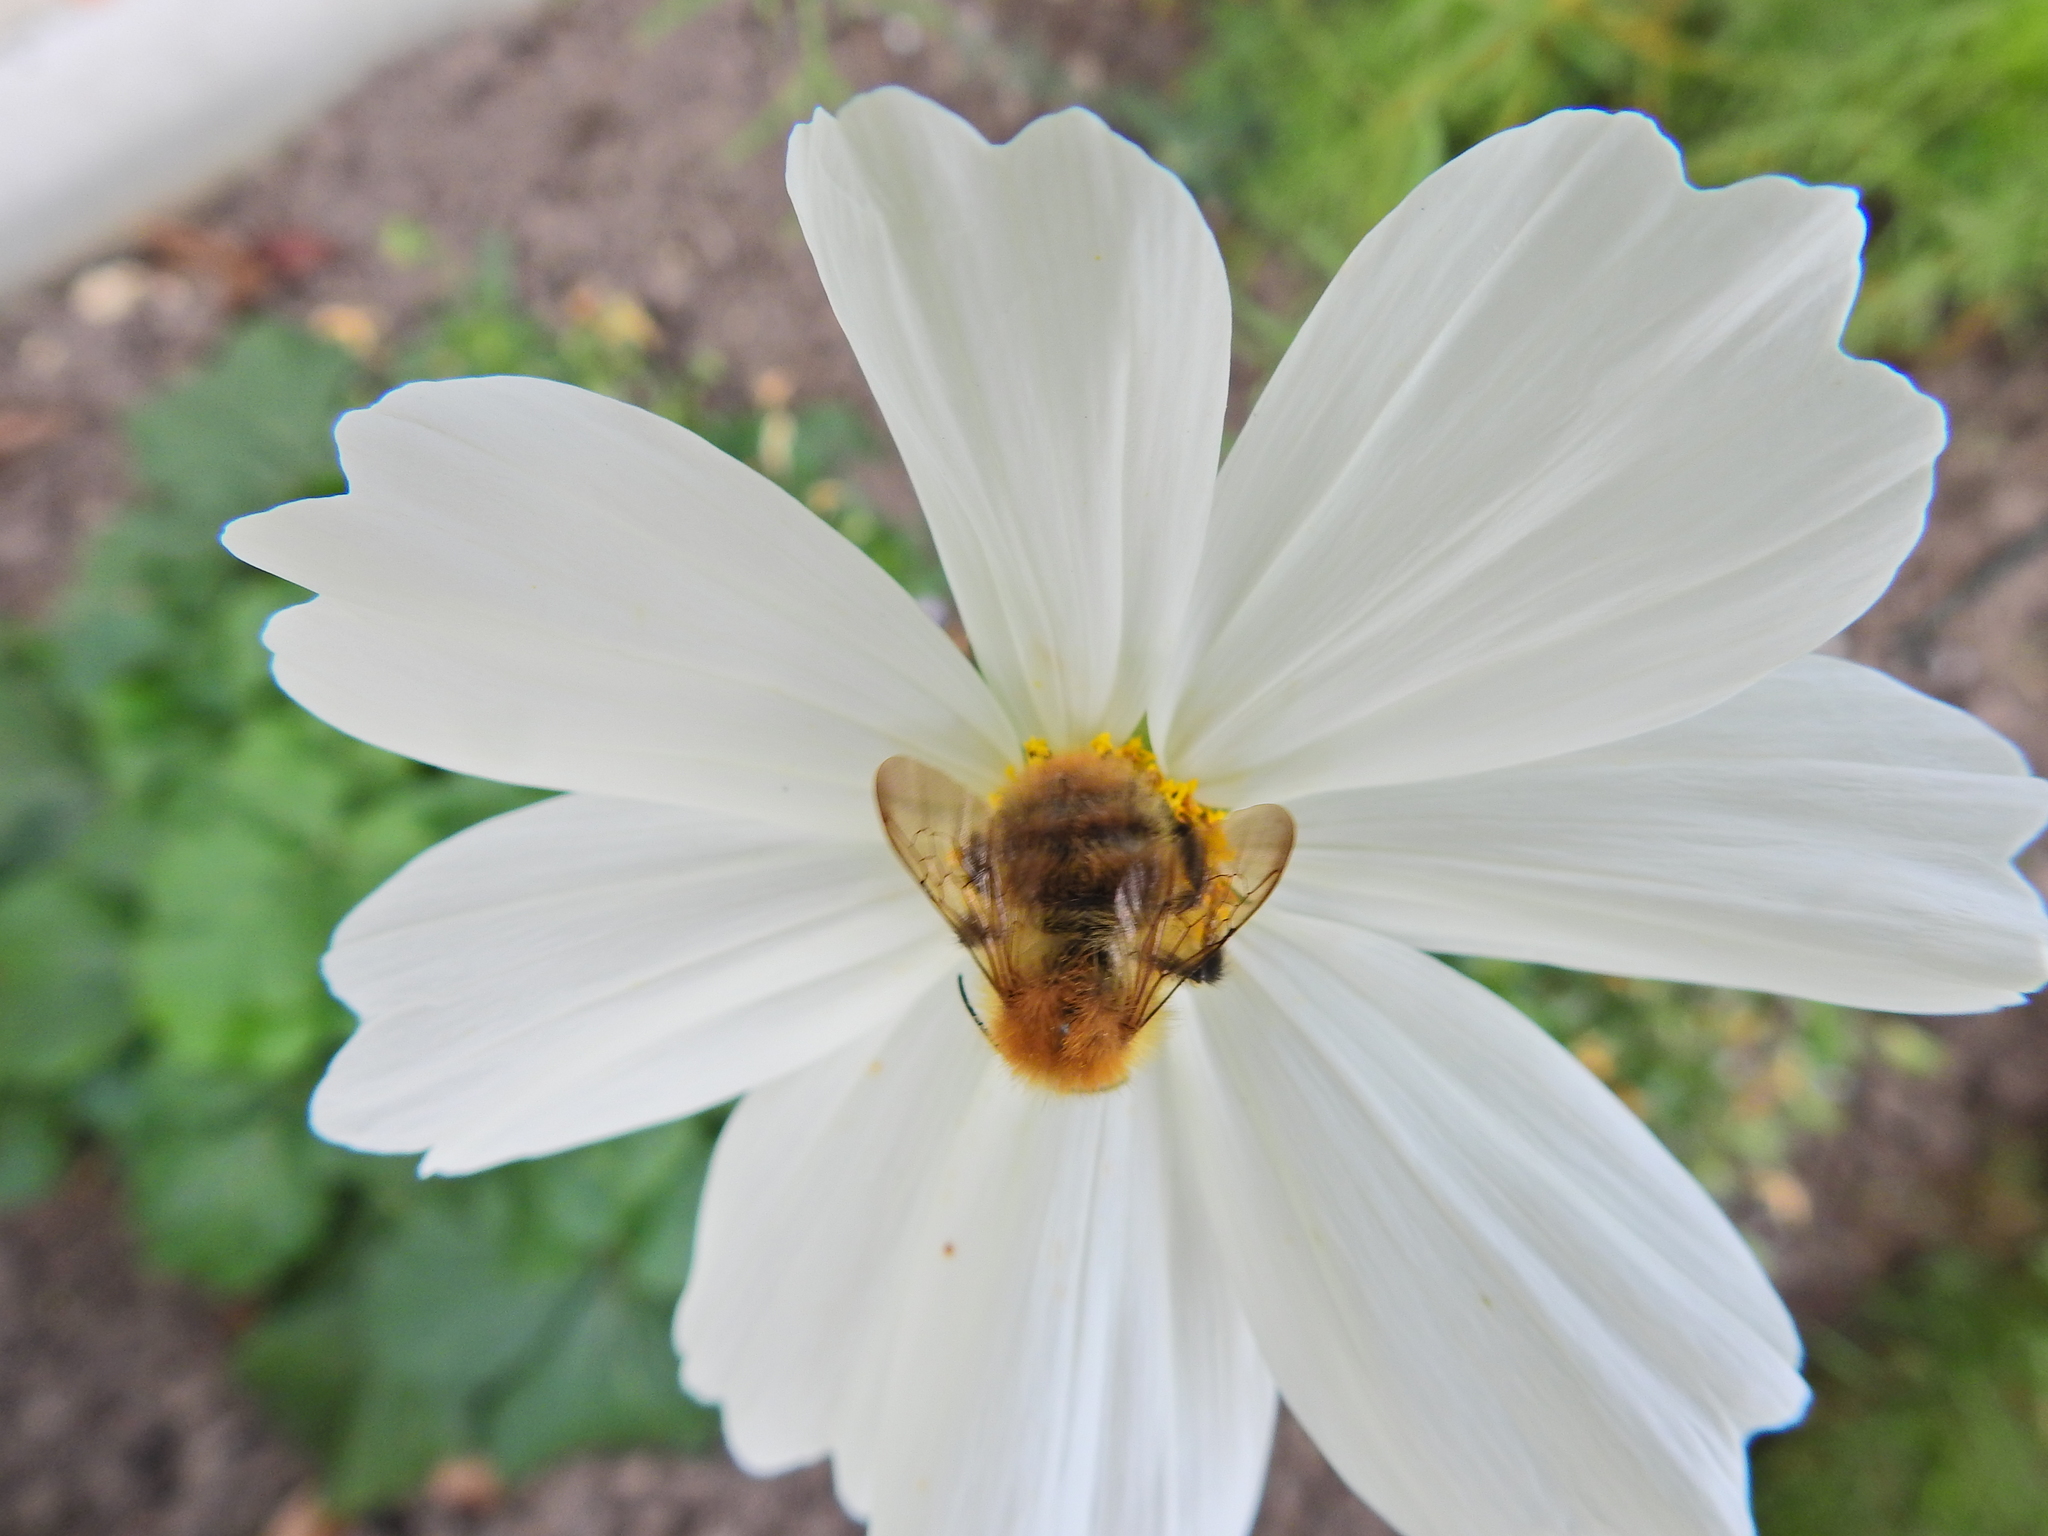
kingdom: Animalia
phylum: Arthropoda
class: Insecta
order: Hymenoptera
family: Apidae
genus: Bombus
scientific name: Bombus pascuorum
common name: Common carder bee
